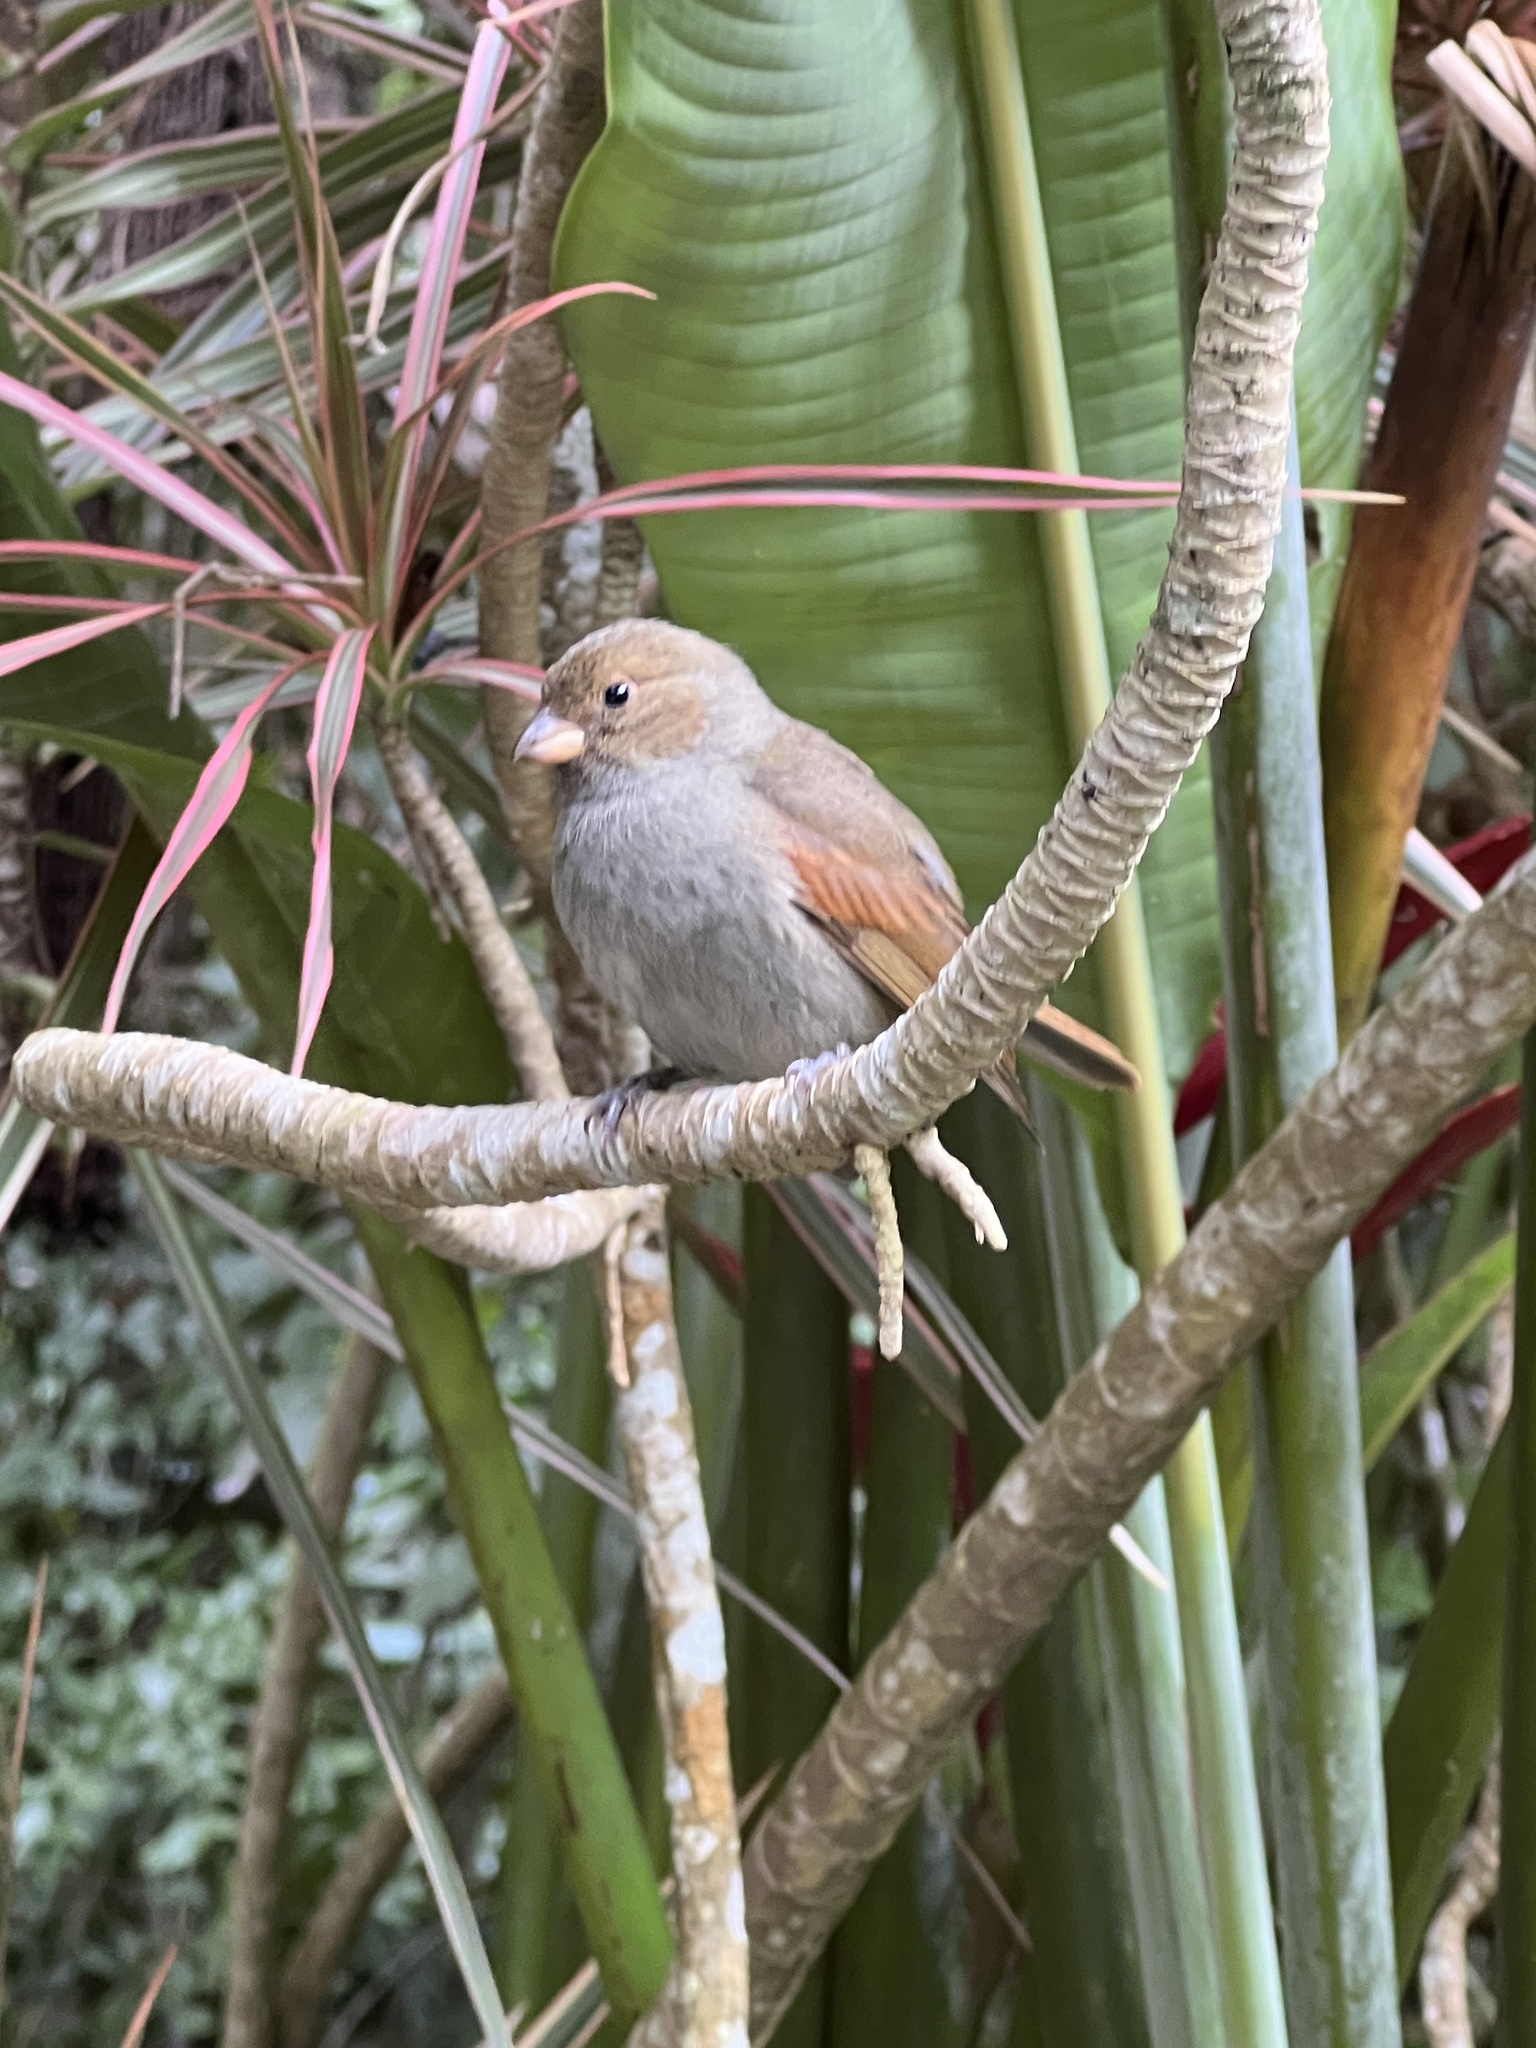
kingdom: Animalia
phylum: Chordata
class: Aves
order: Passeriformes
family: Thraupidae
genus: Loxigilla
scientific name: Loxigilla noctis
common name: Lesser antillean bullfinch
